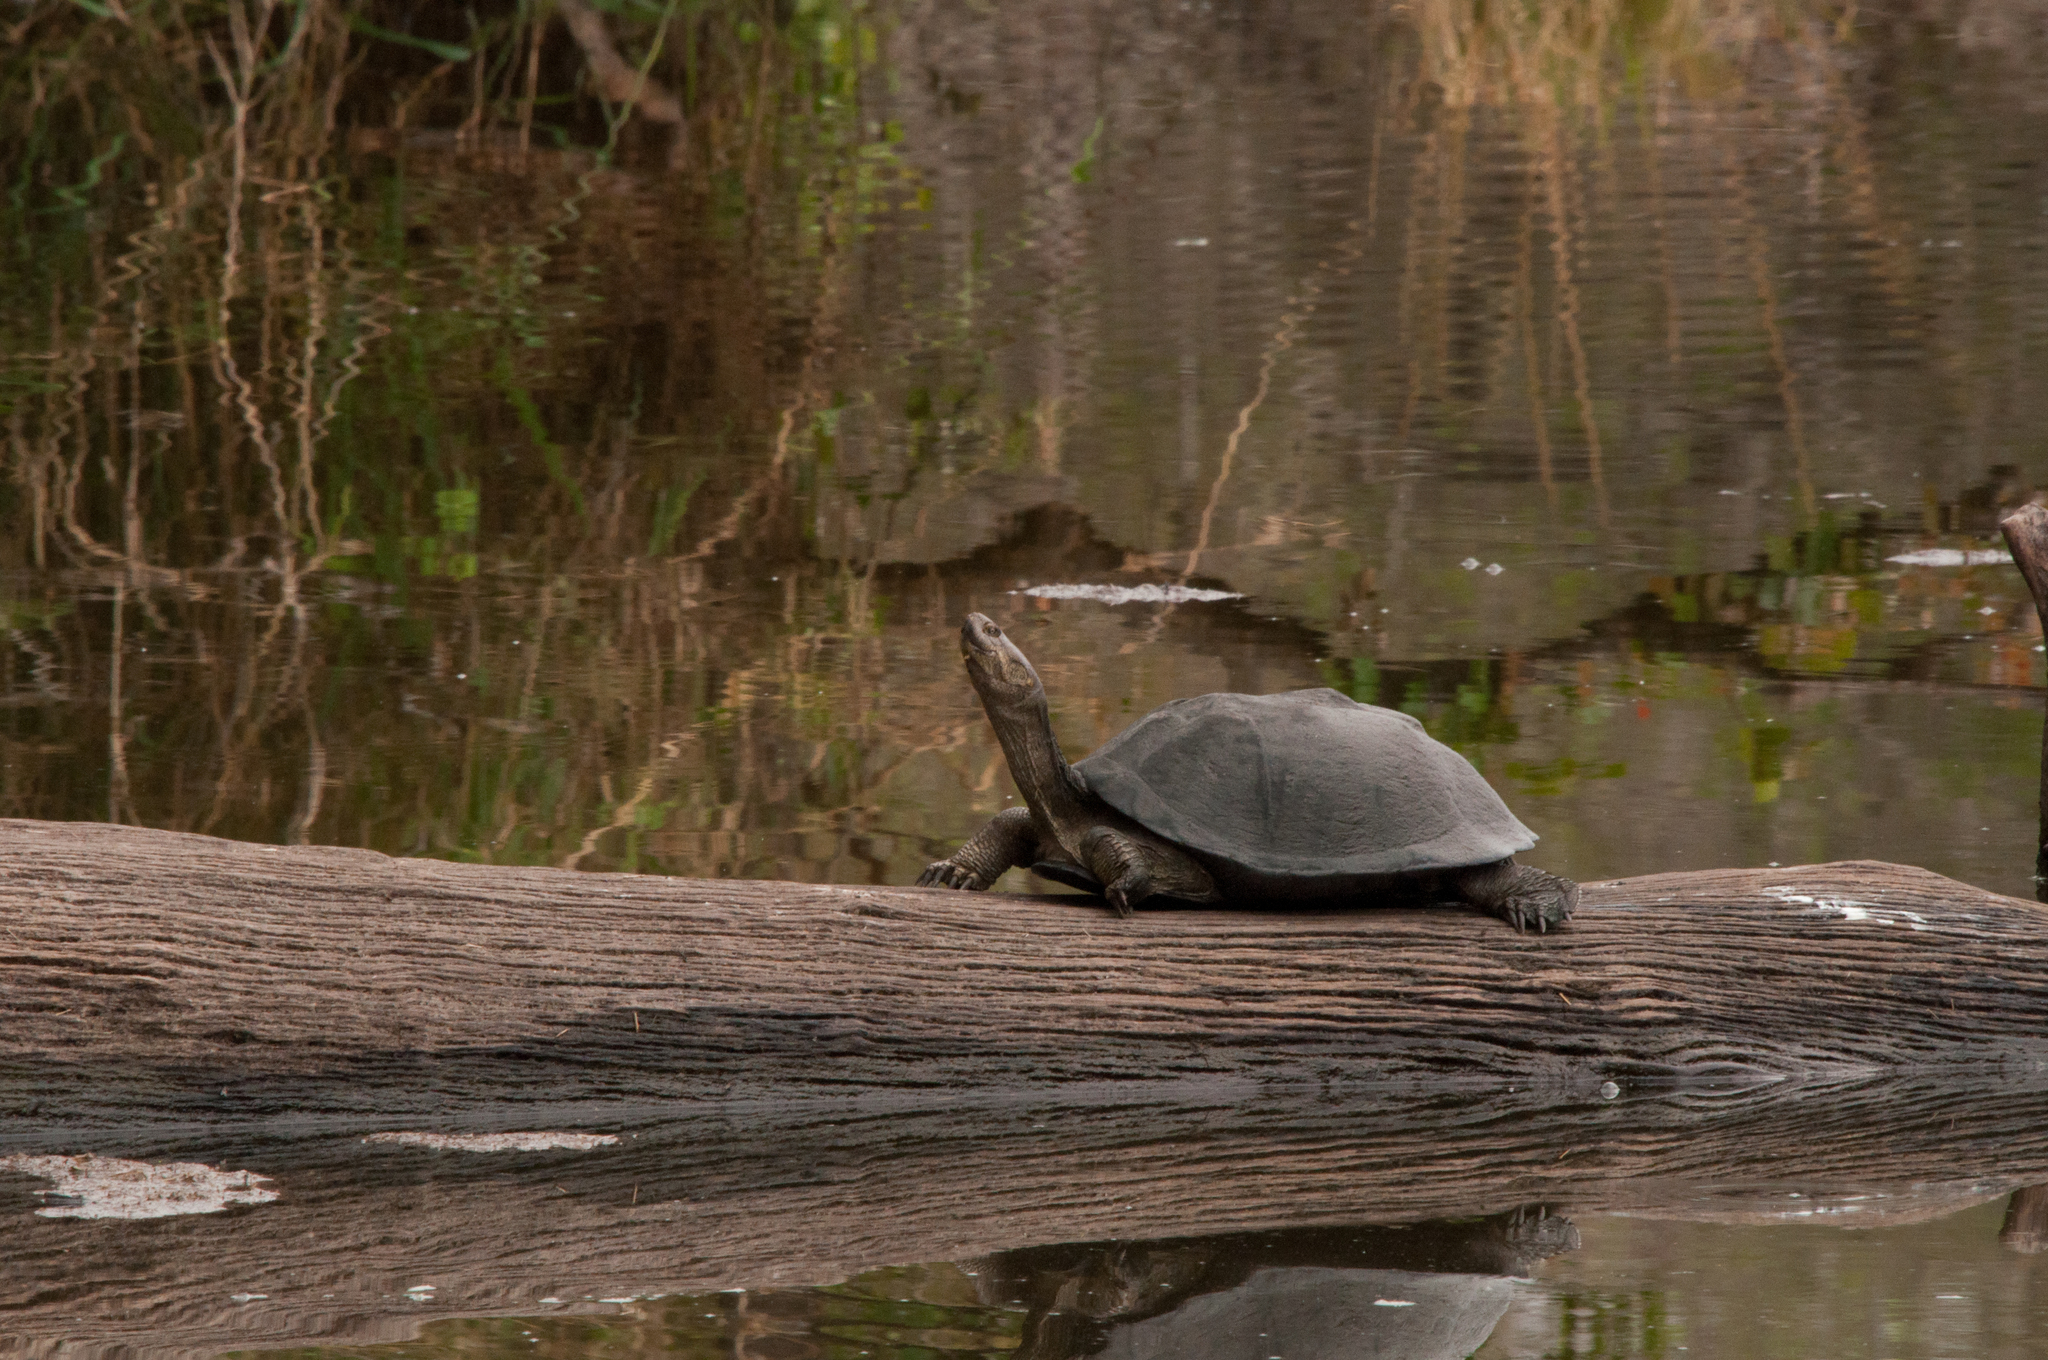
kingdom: Animalia
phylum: Chordata
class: Testudines
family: Pelomedusidae
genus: Pelusios
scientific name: Pelusios sinuatus
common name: Serrated hinged terrapin
